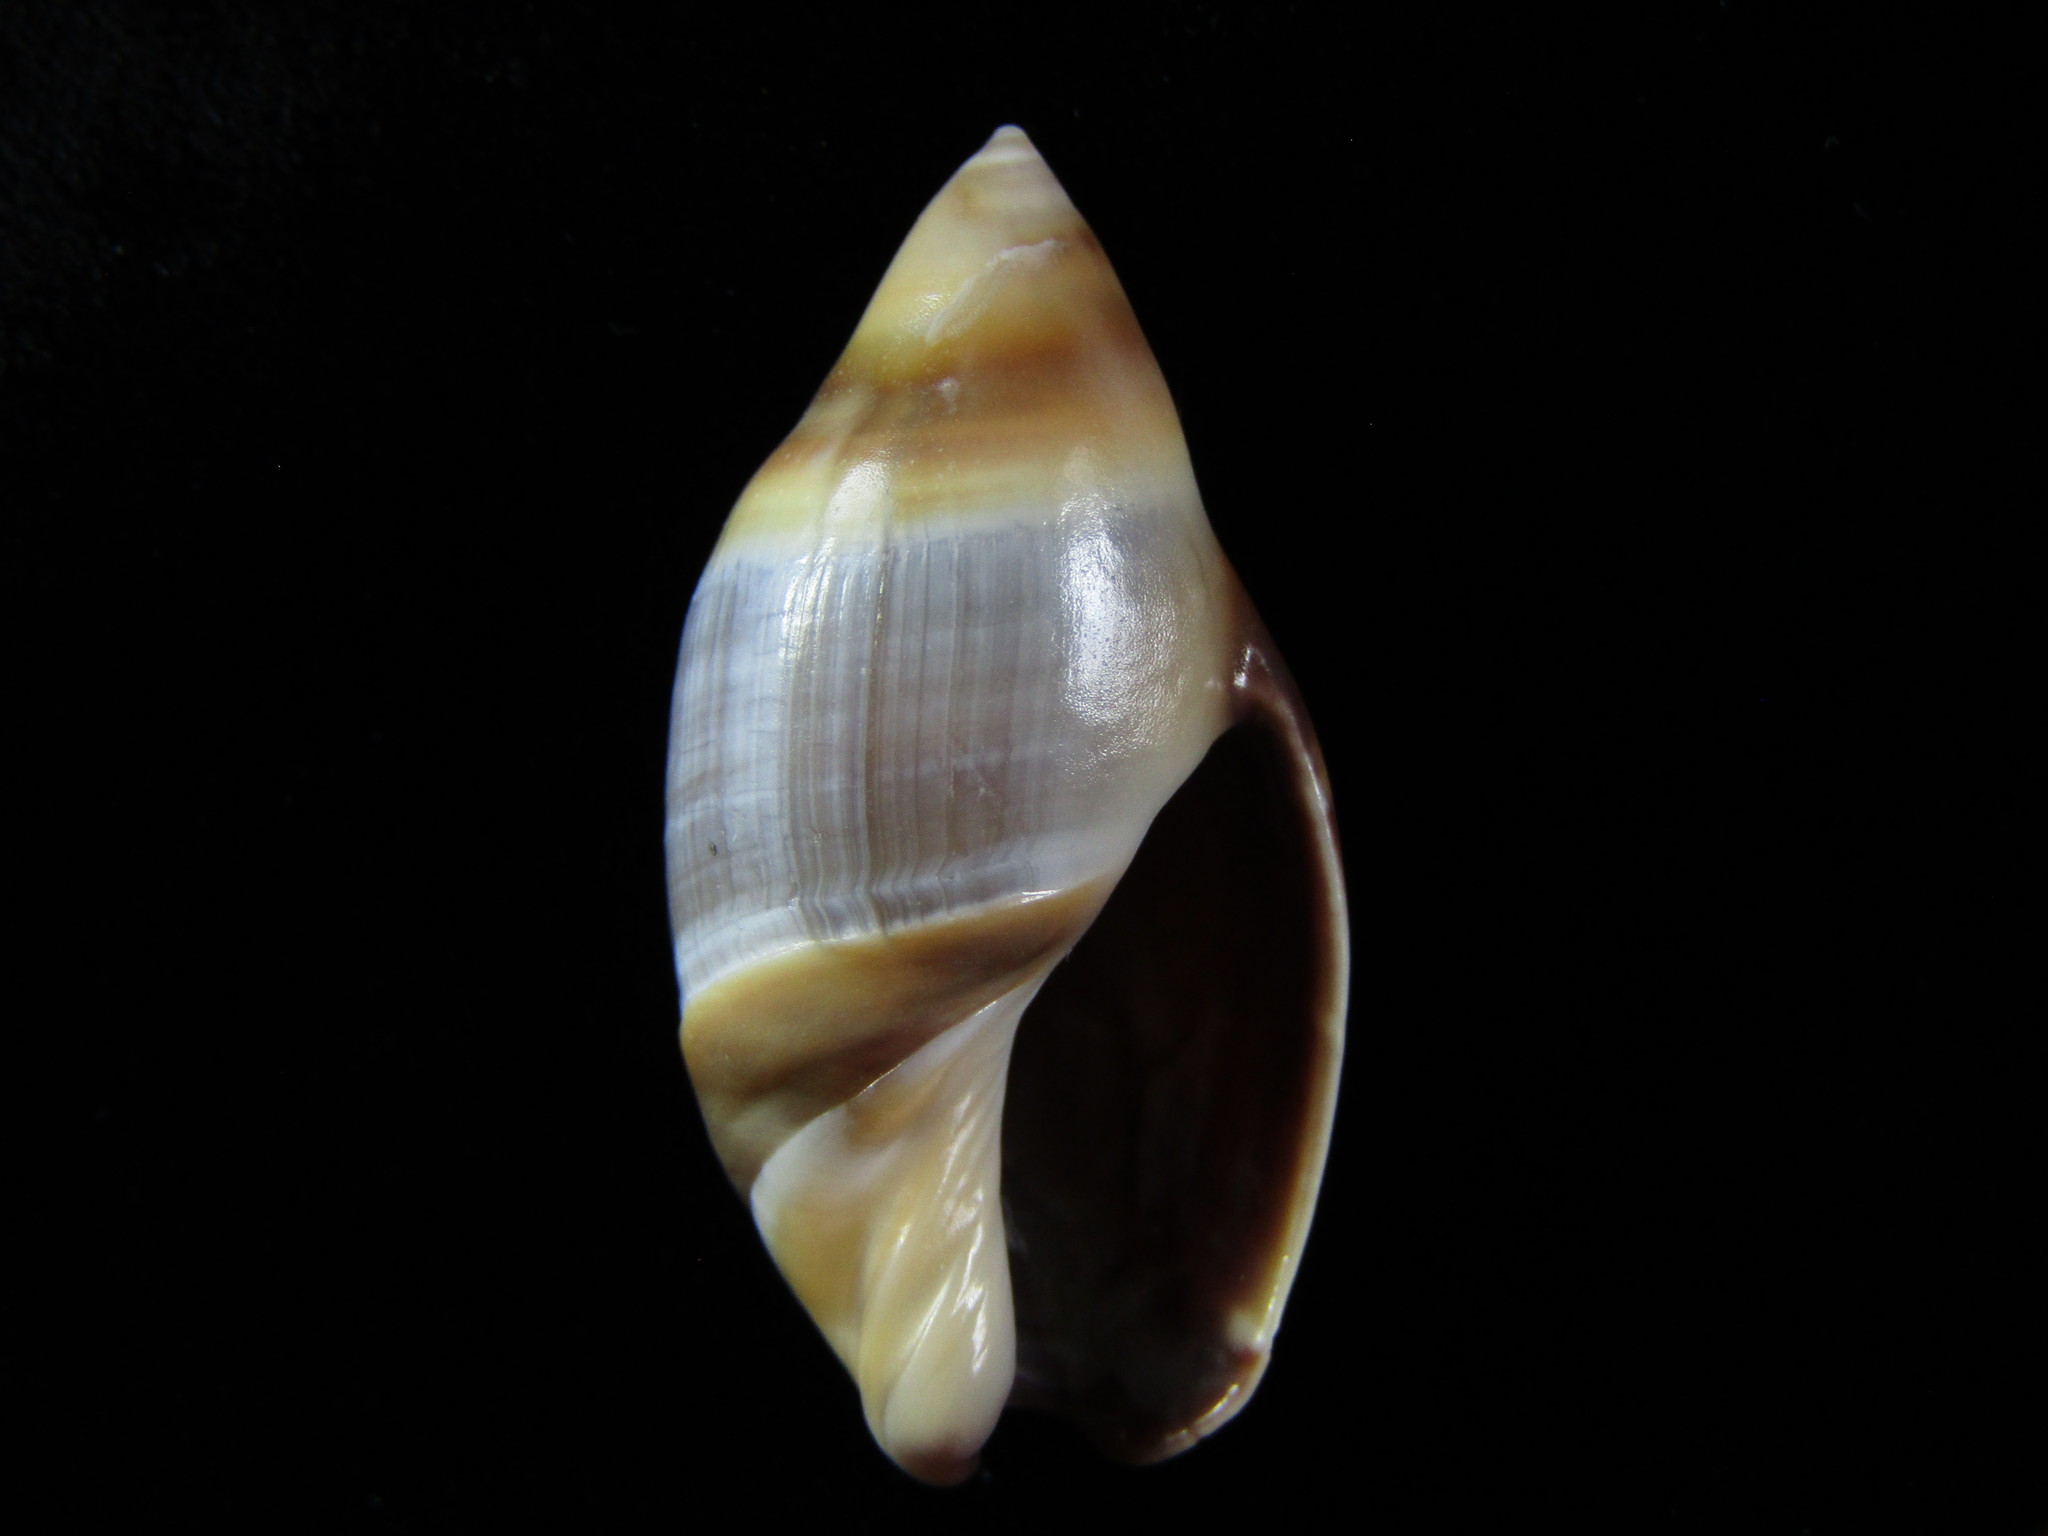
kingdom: Animalia
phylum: Mollusca
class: Gastropoda
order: Neogastropoda
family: Ancillariidae
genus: Amalda
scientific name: Amalda australis
